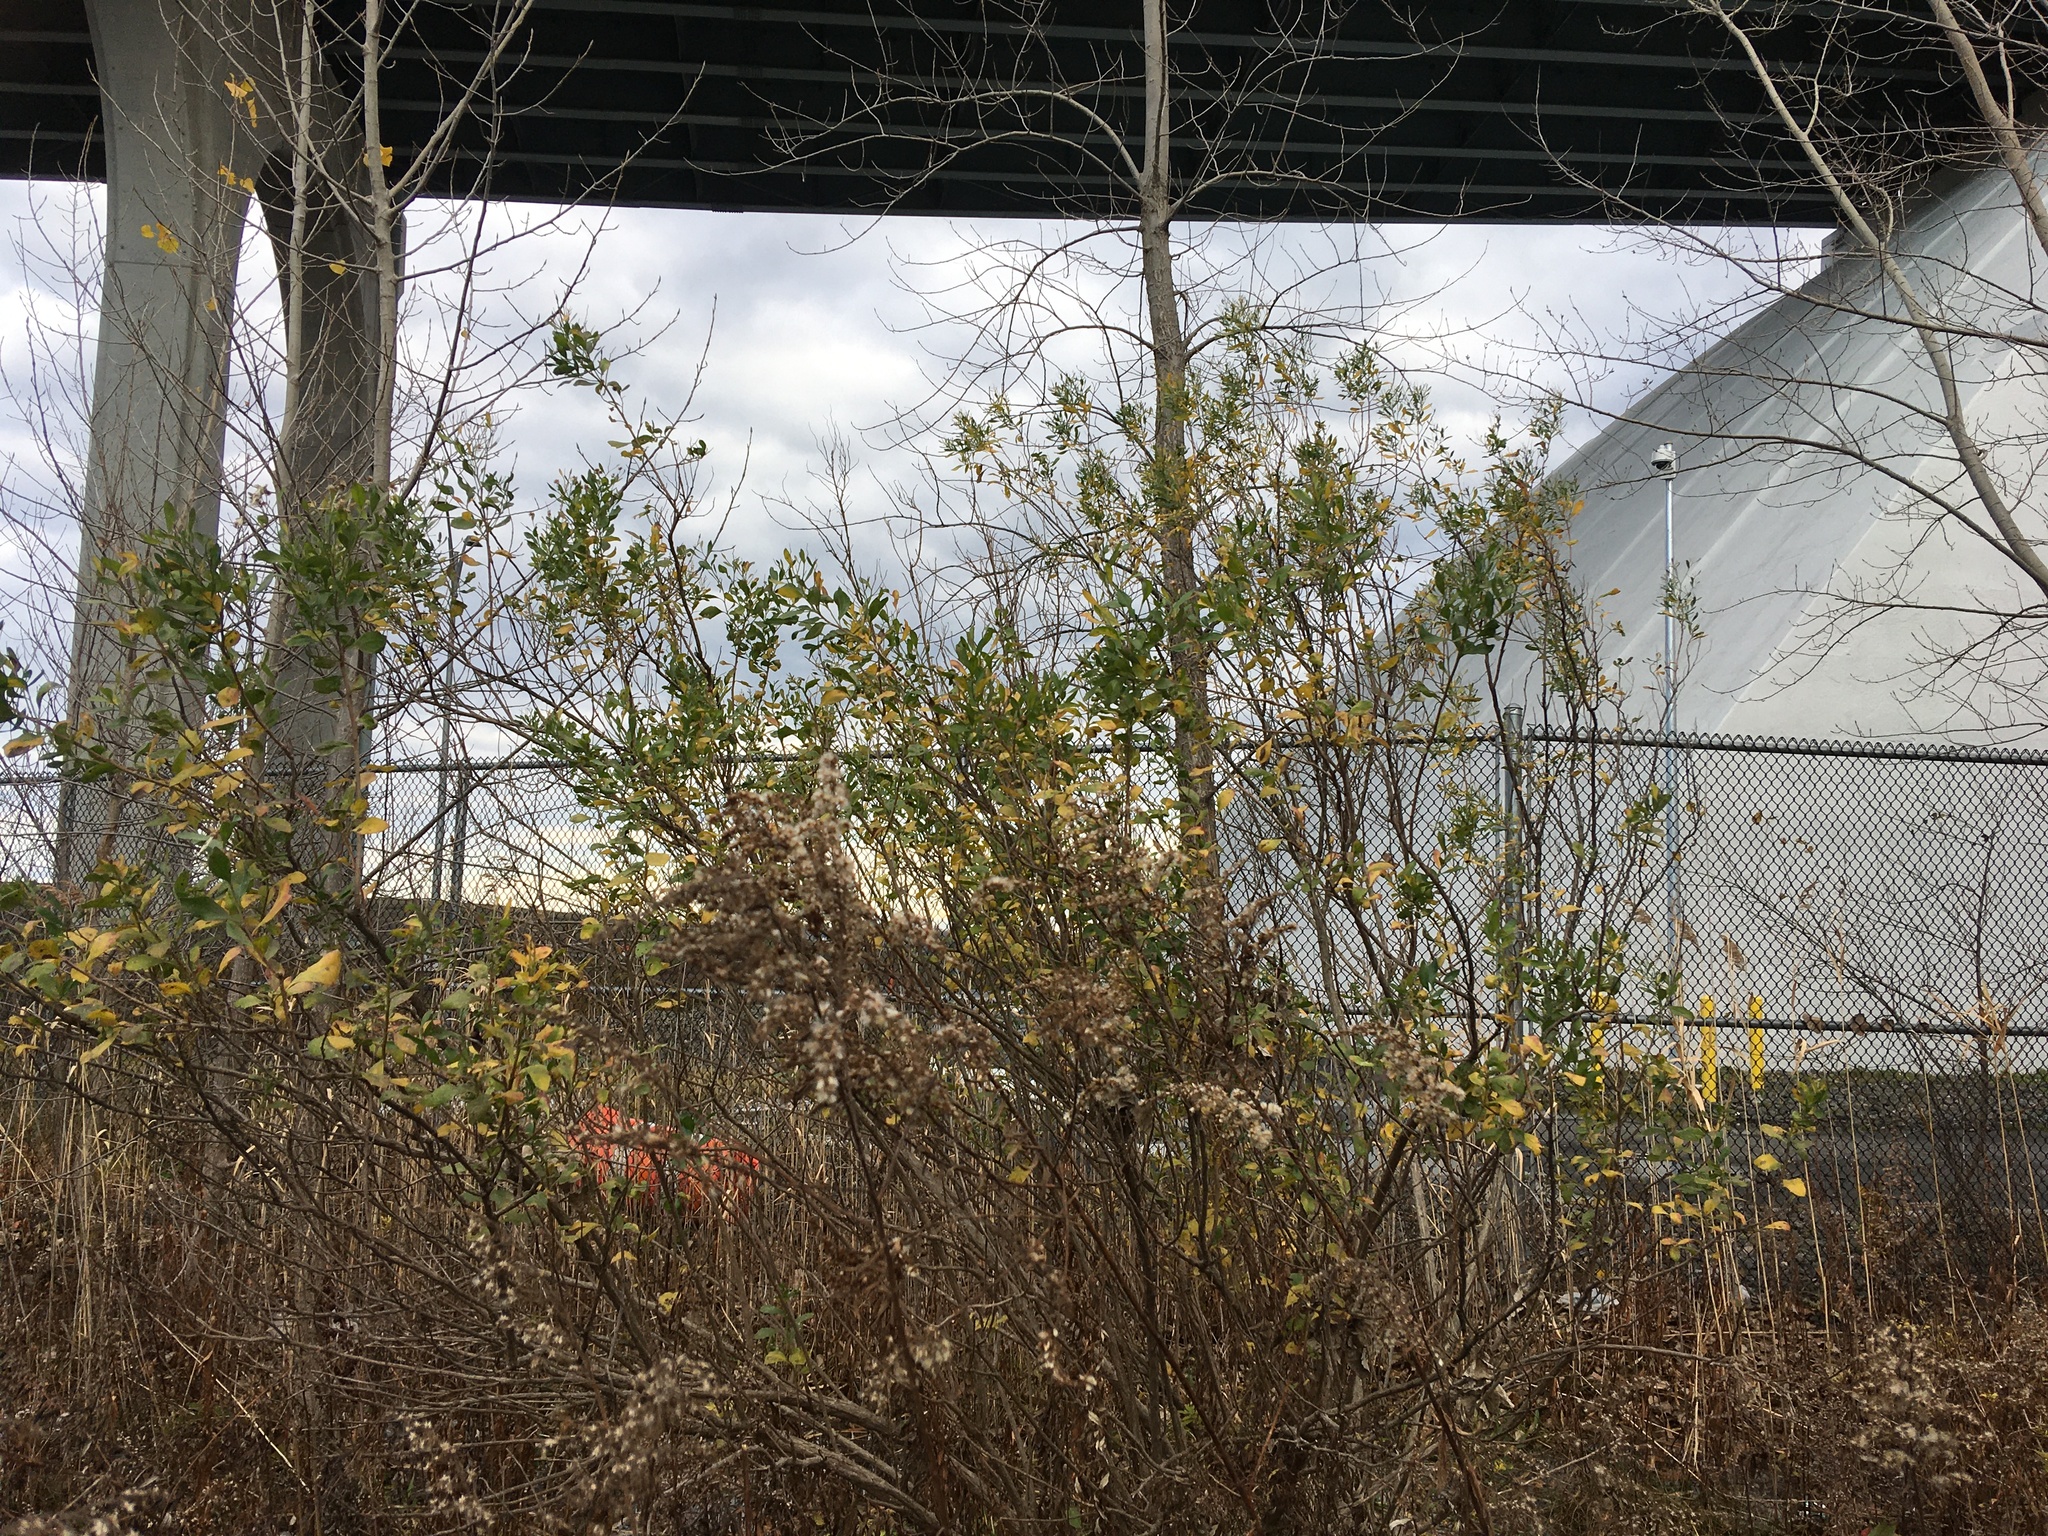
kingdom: Plantae
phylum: Tracheophyta
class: Magnoliopsida
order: Asterales
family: Asteraceae
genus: Baccharis
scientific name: Baccharis halimifolia
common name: Eastern baccharis
